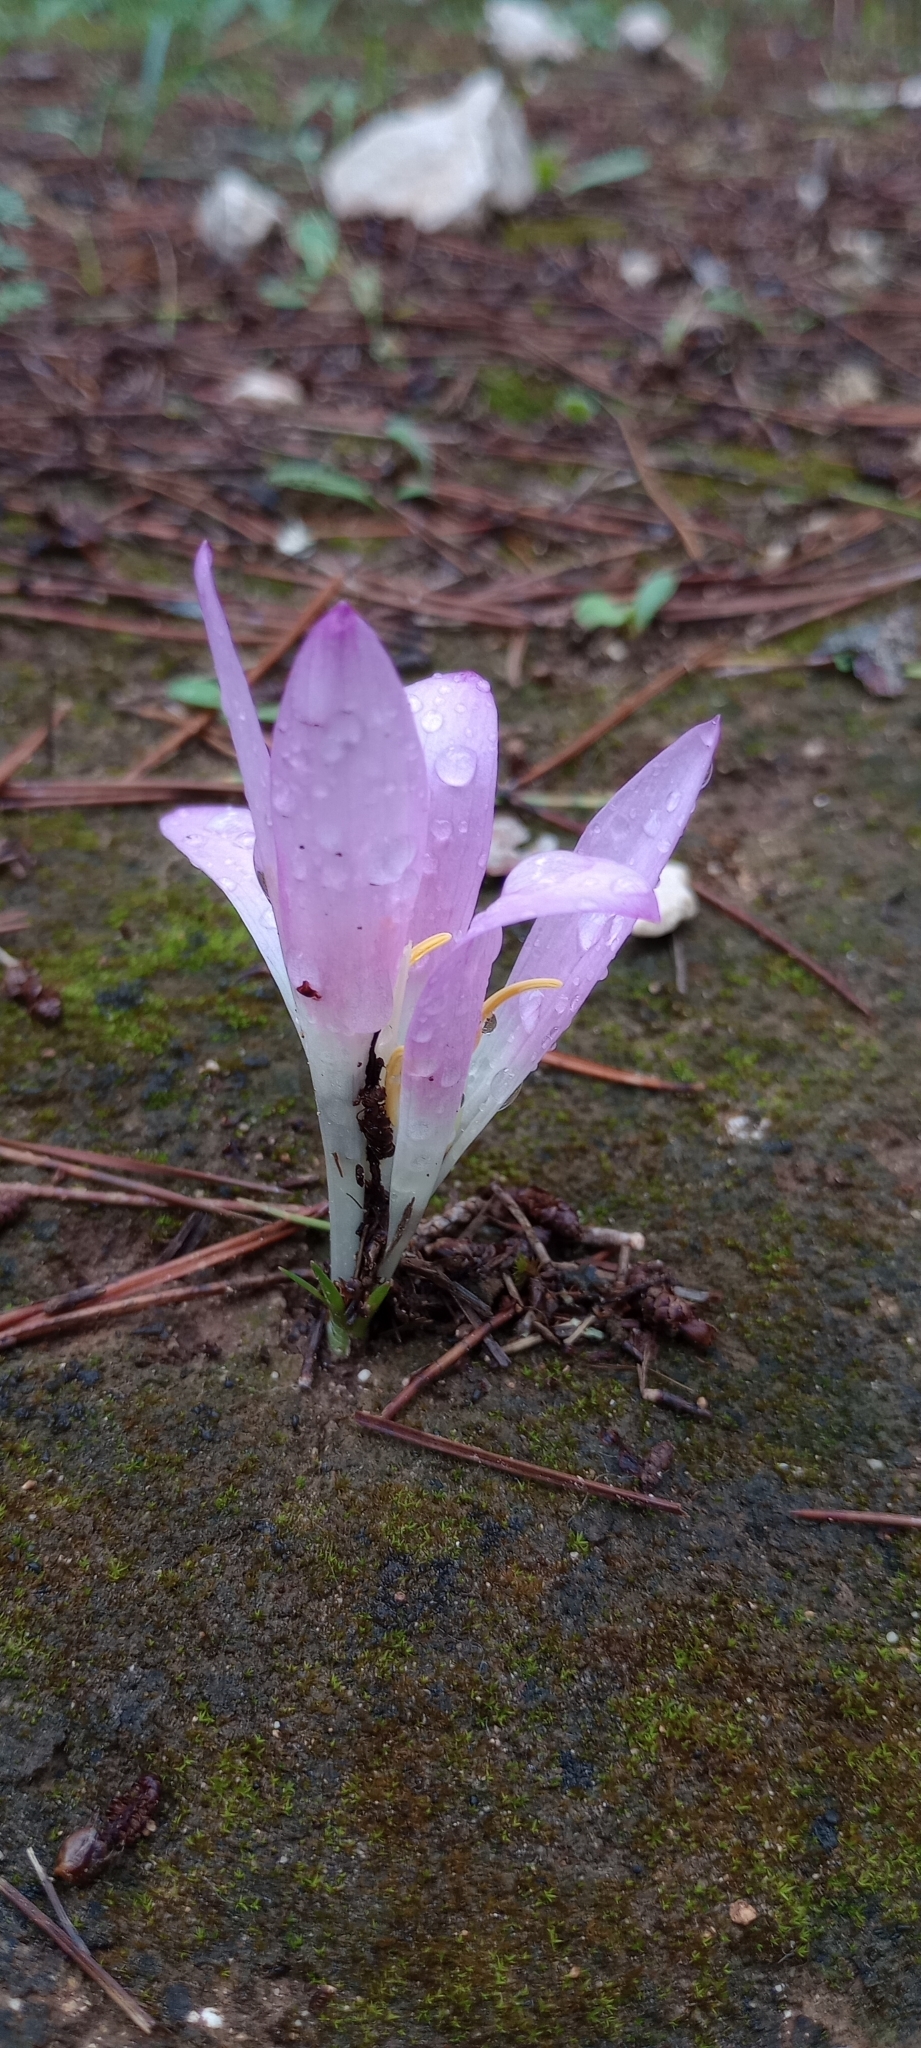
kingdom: Plantae
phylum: Tracheophyta
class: Liliopsida
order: Liliales
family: Colchicaceae
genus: Colchicum
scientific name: Colchicum filifolium
